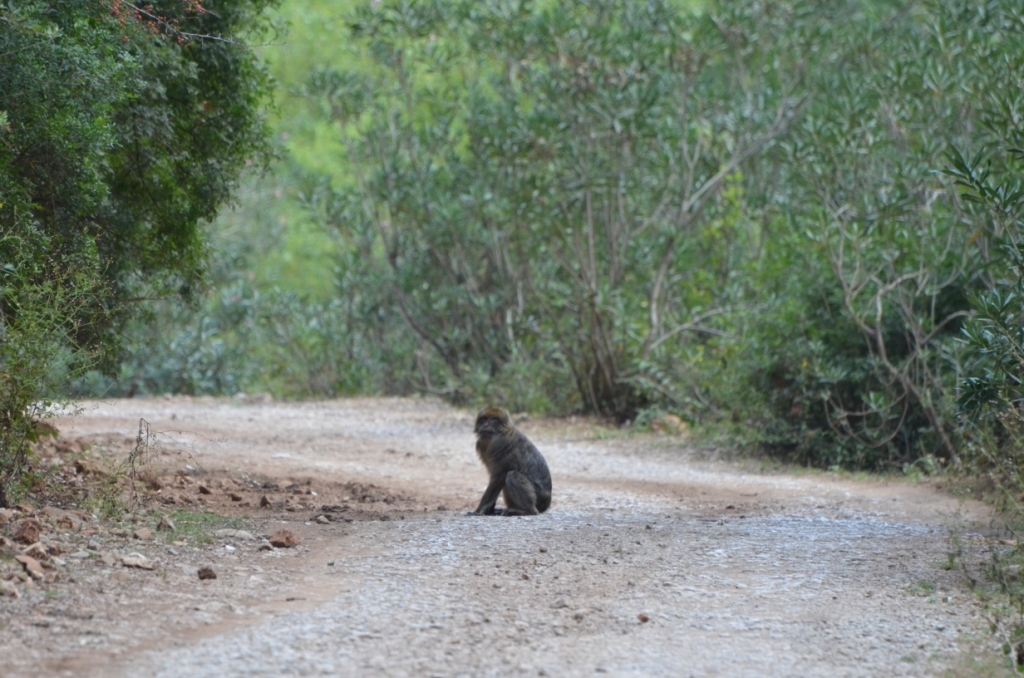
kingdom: Animalia
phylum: Chordata
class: Mammalia
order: Primates
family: Cercopithecidae
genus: Macaca
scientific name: Macaca sylvanus
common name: Barbary macaque
